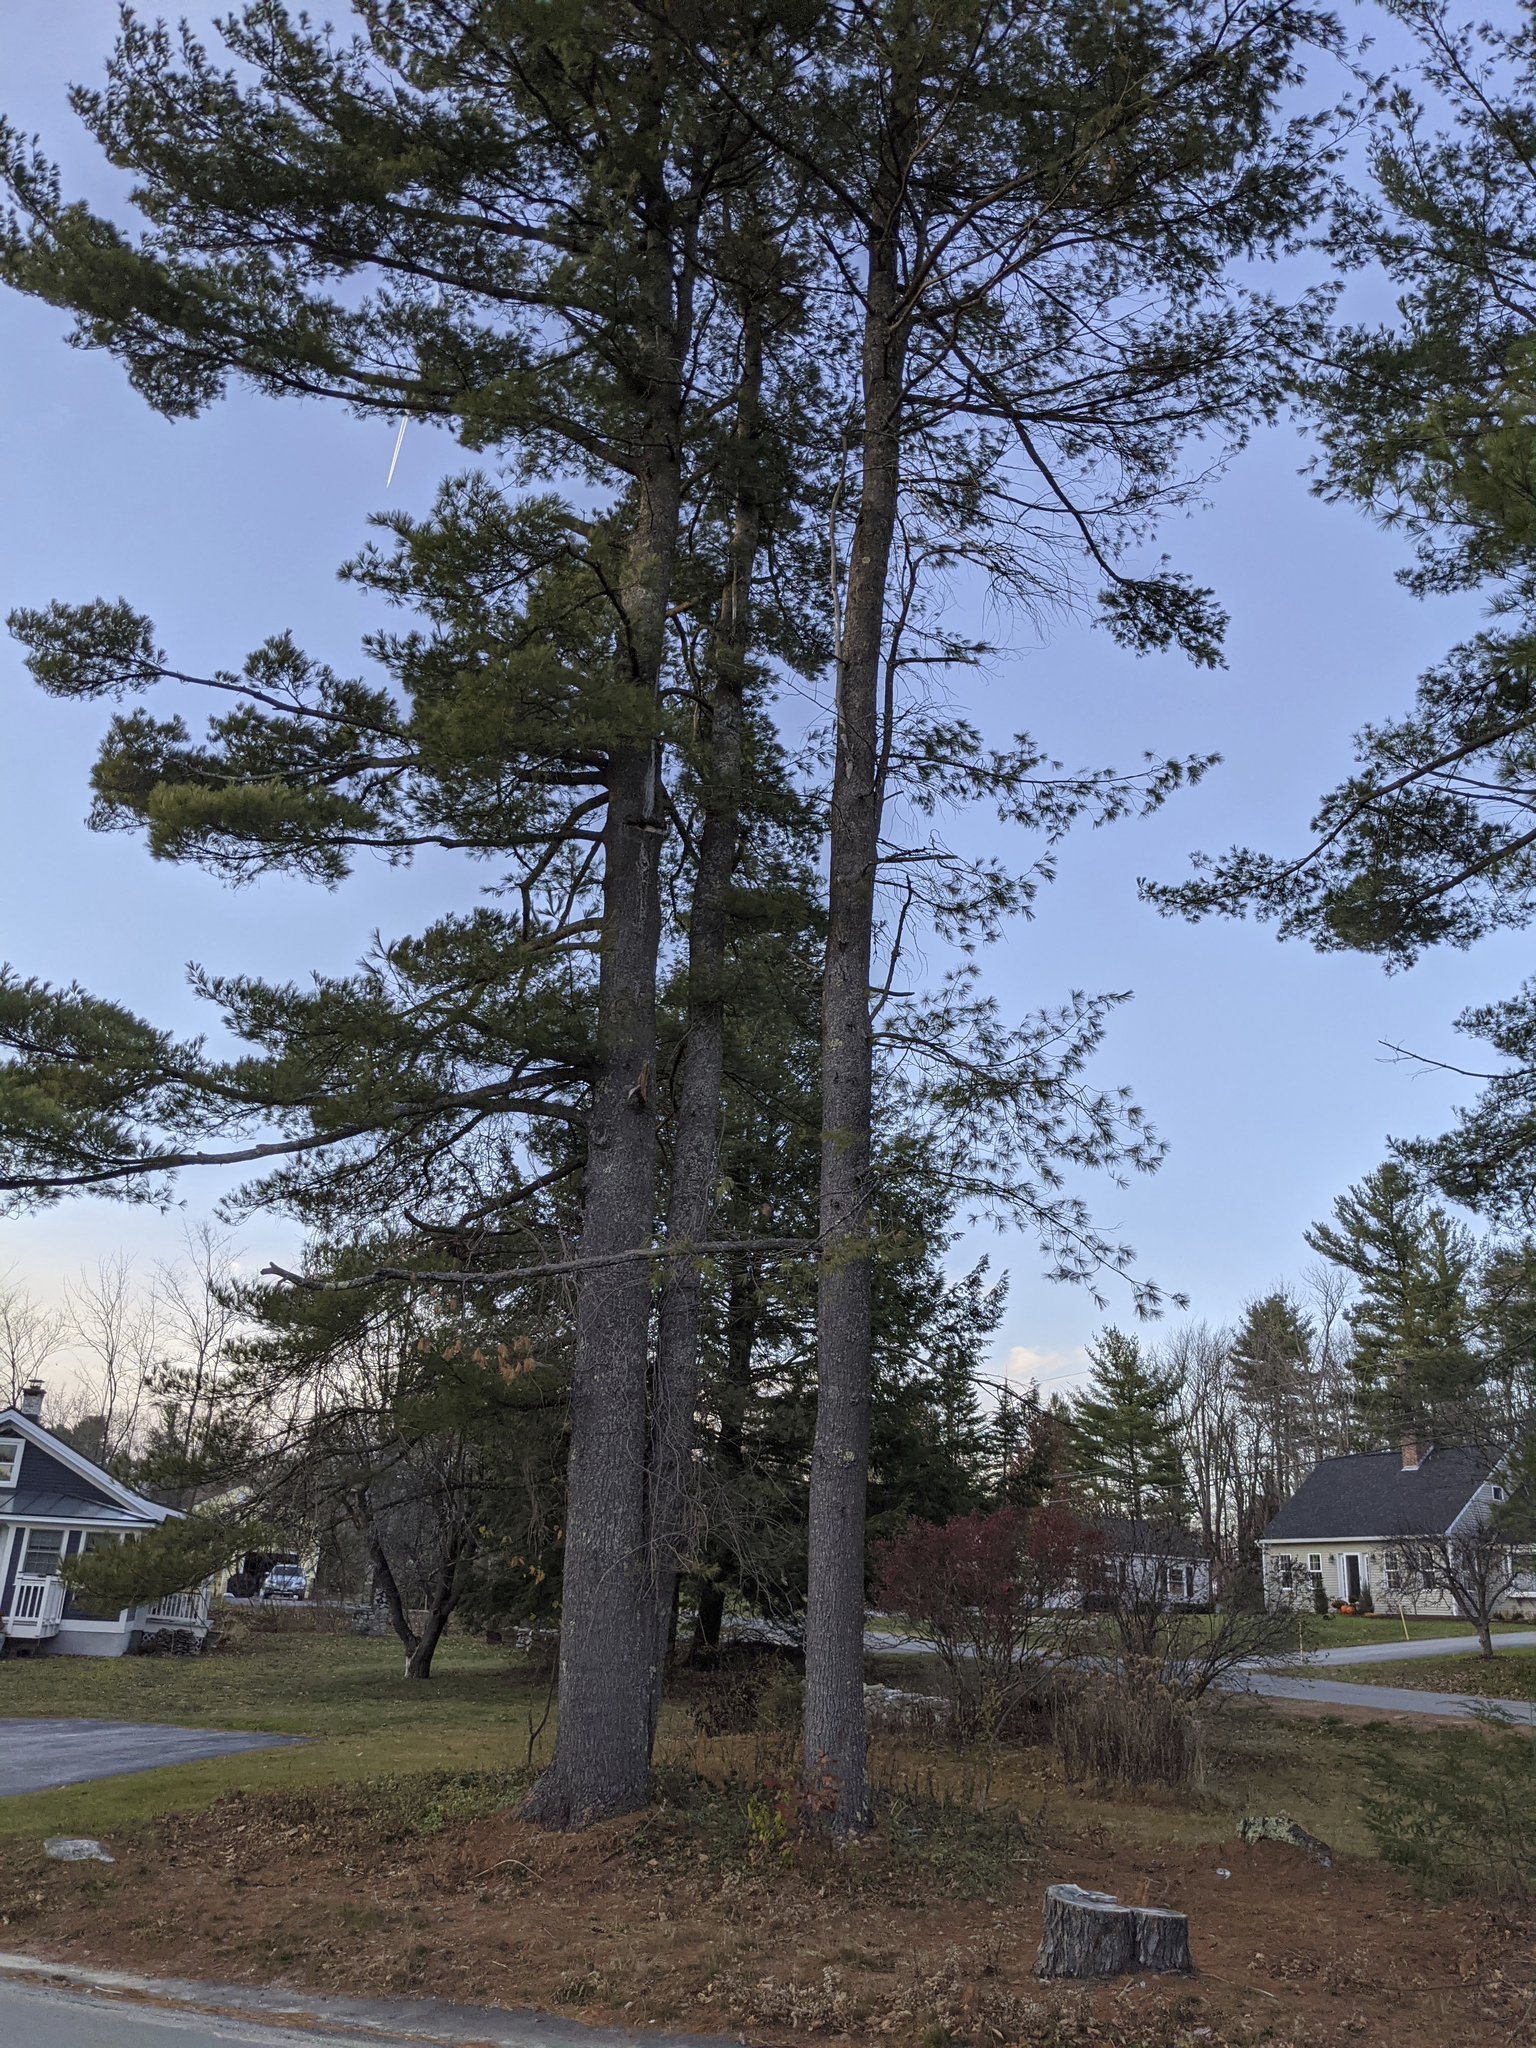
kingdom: Plantae
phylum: Tracheophyta
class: Pinopsida
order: Pinales
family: Pinaceae
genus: Pinus
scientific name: Pinus strobus
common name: Weymouth pine
